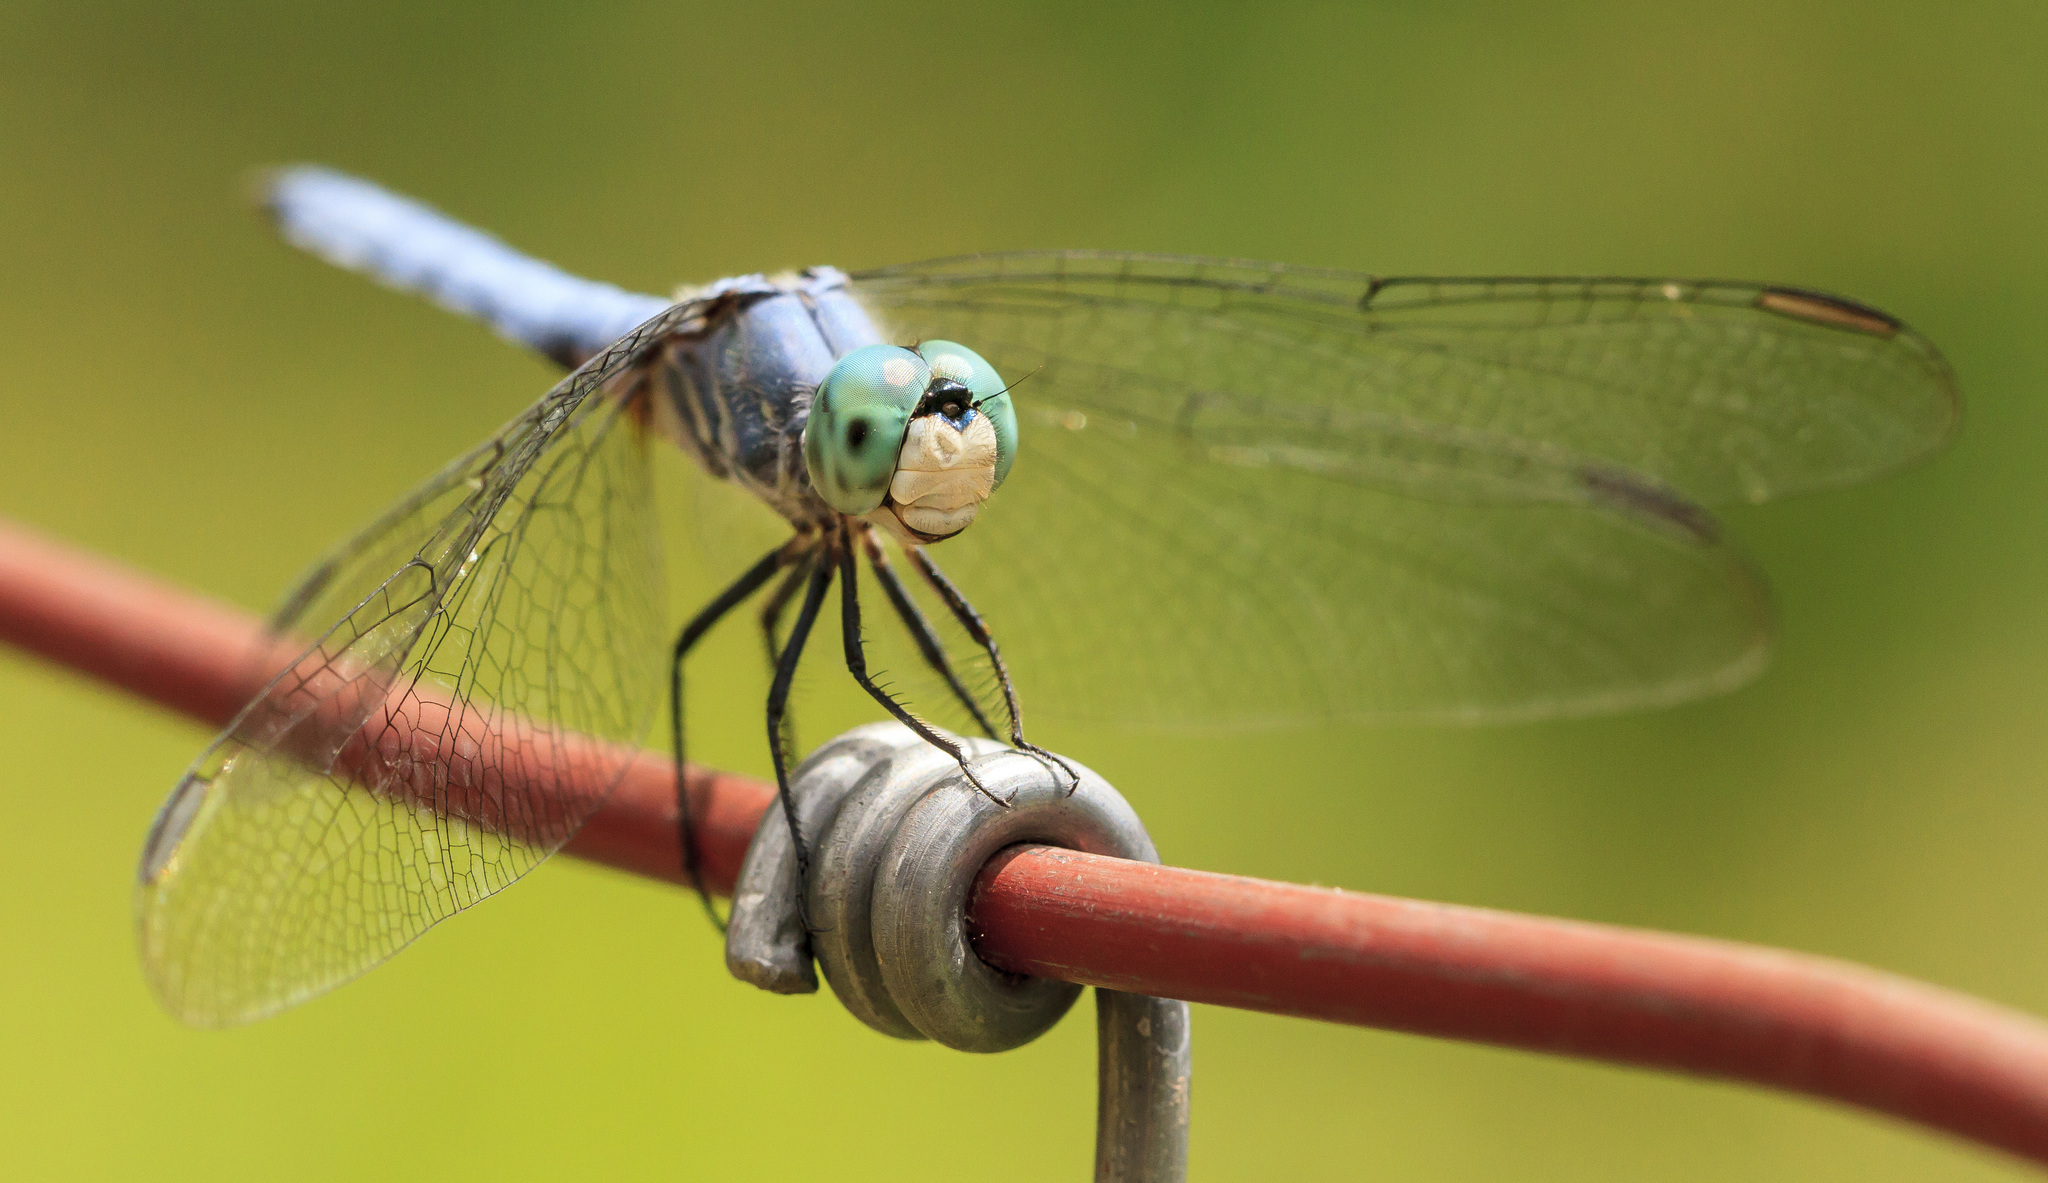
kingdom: Animalia
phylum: Arthropoda
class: Insecta
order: Odonata
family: Libellulidae
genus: Pachydiplax
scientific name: Pachydiplax longipennis
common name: Blue dasher
